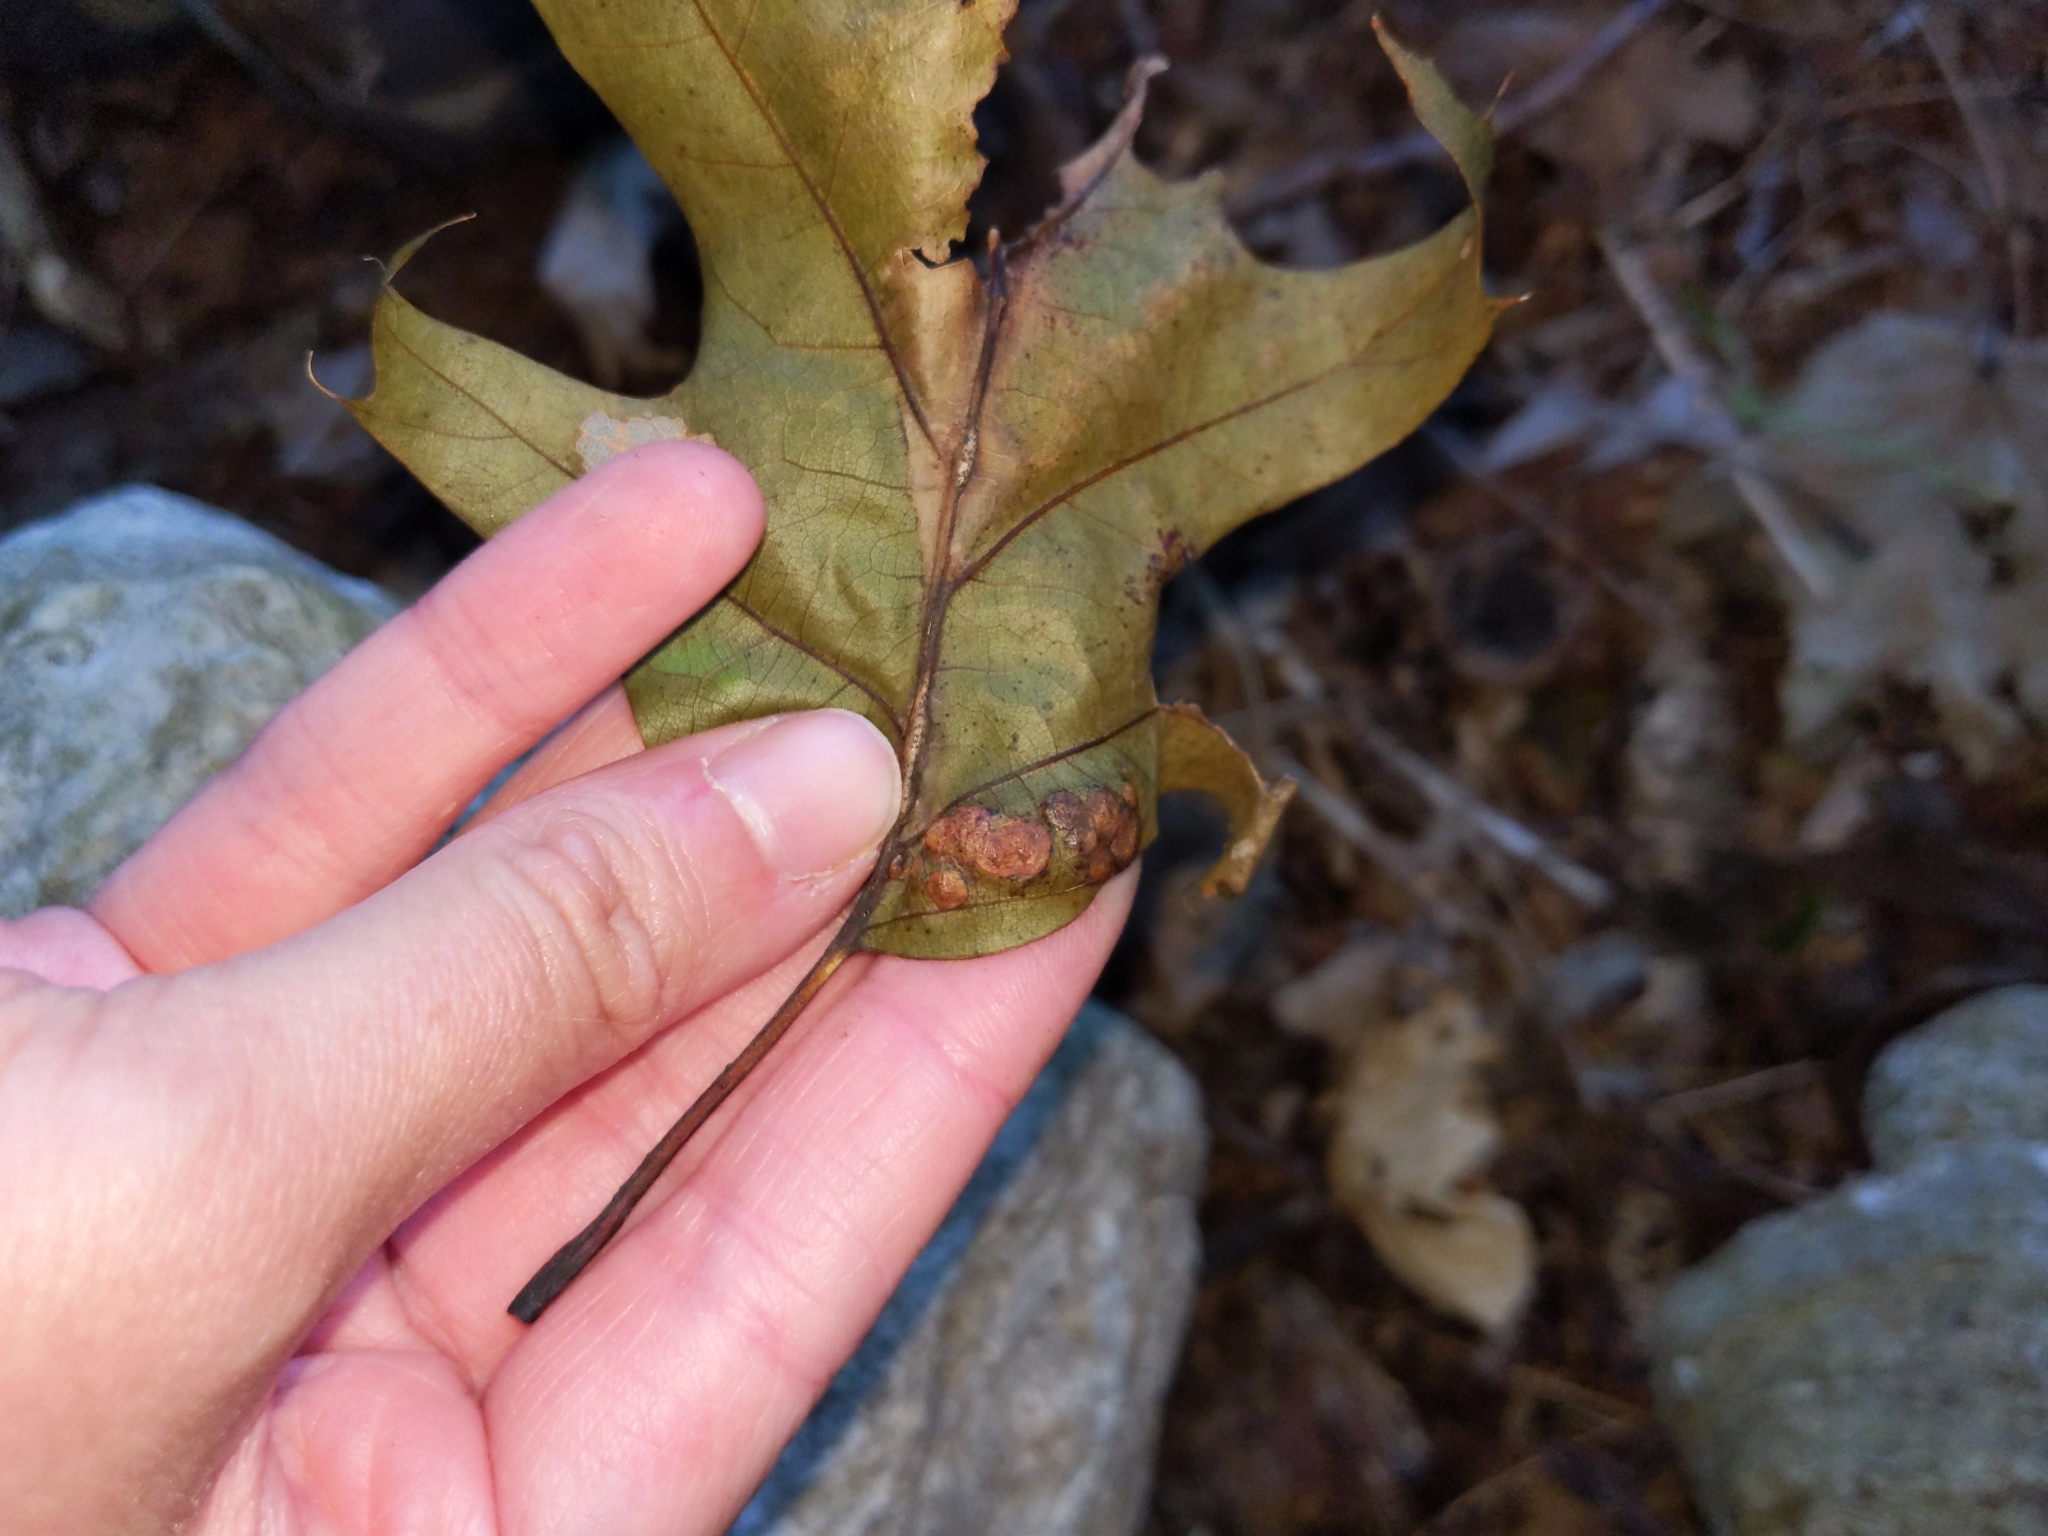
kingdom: Animalia
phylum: Arthropoda
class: Insecta
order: Diptera
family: Cecidomyiidae
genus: Polystepha
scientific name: Polystepha pilulae
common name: Oak leaf gall midge
